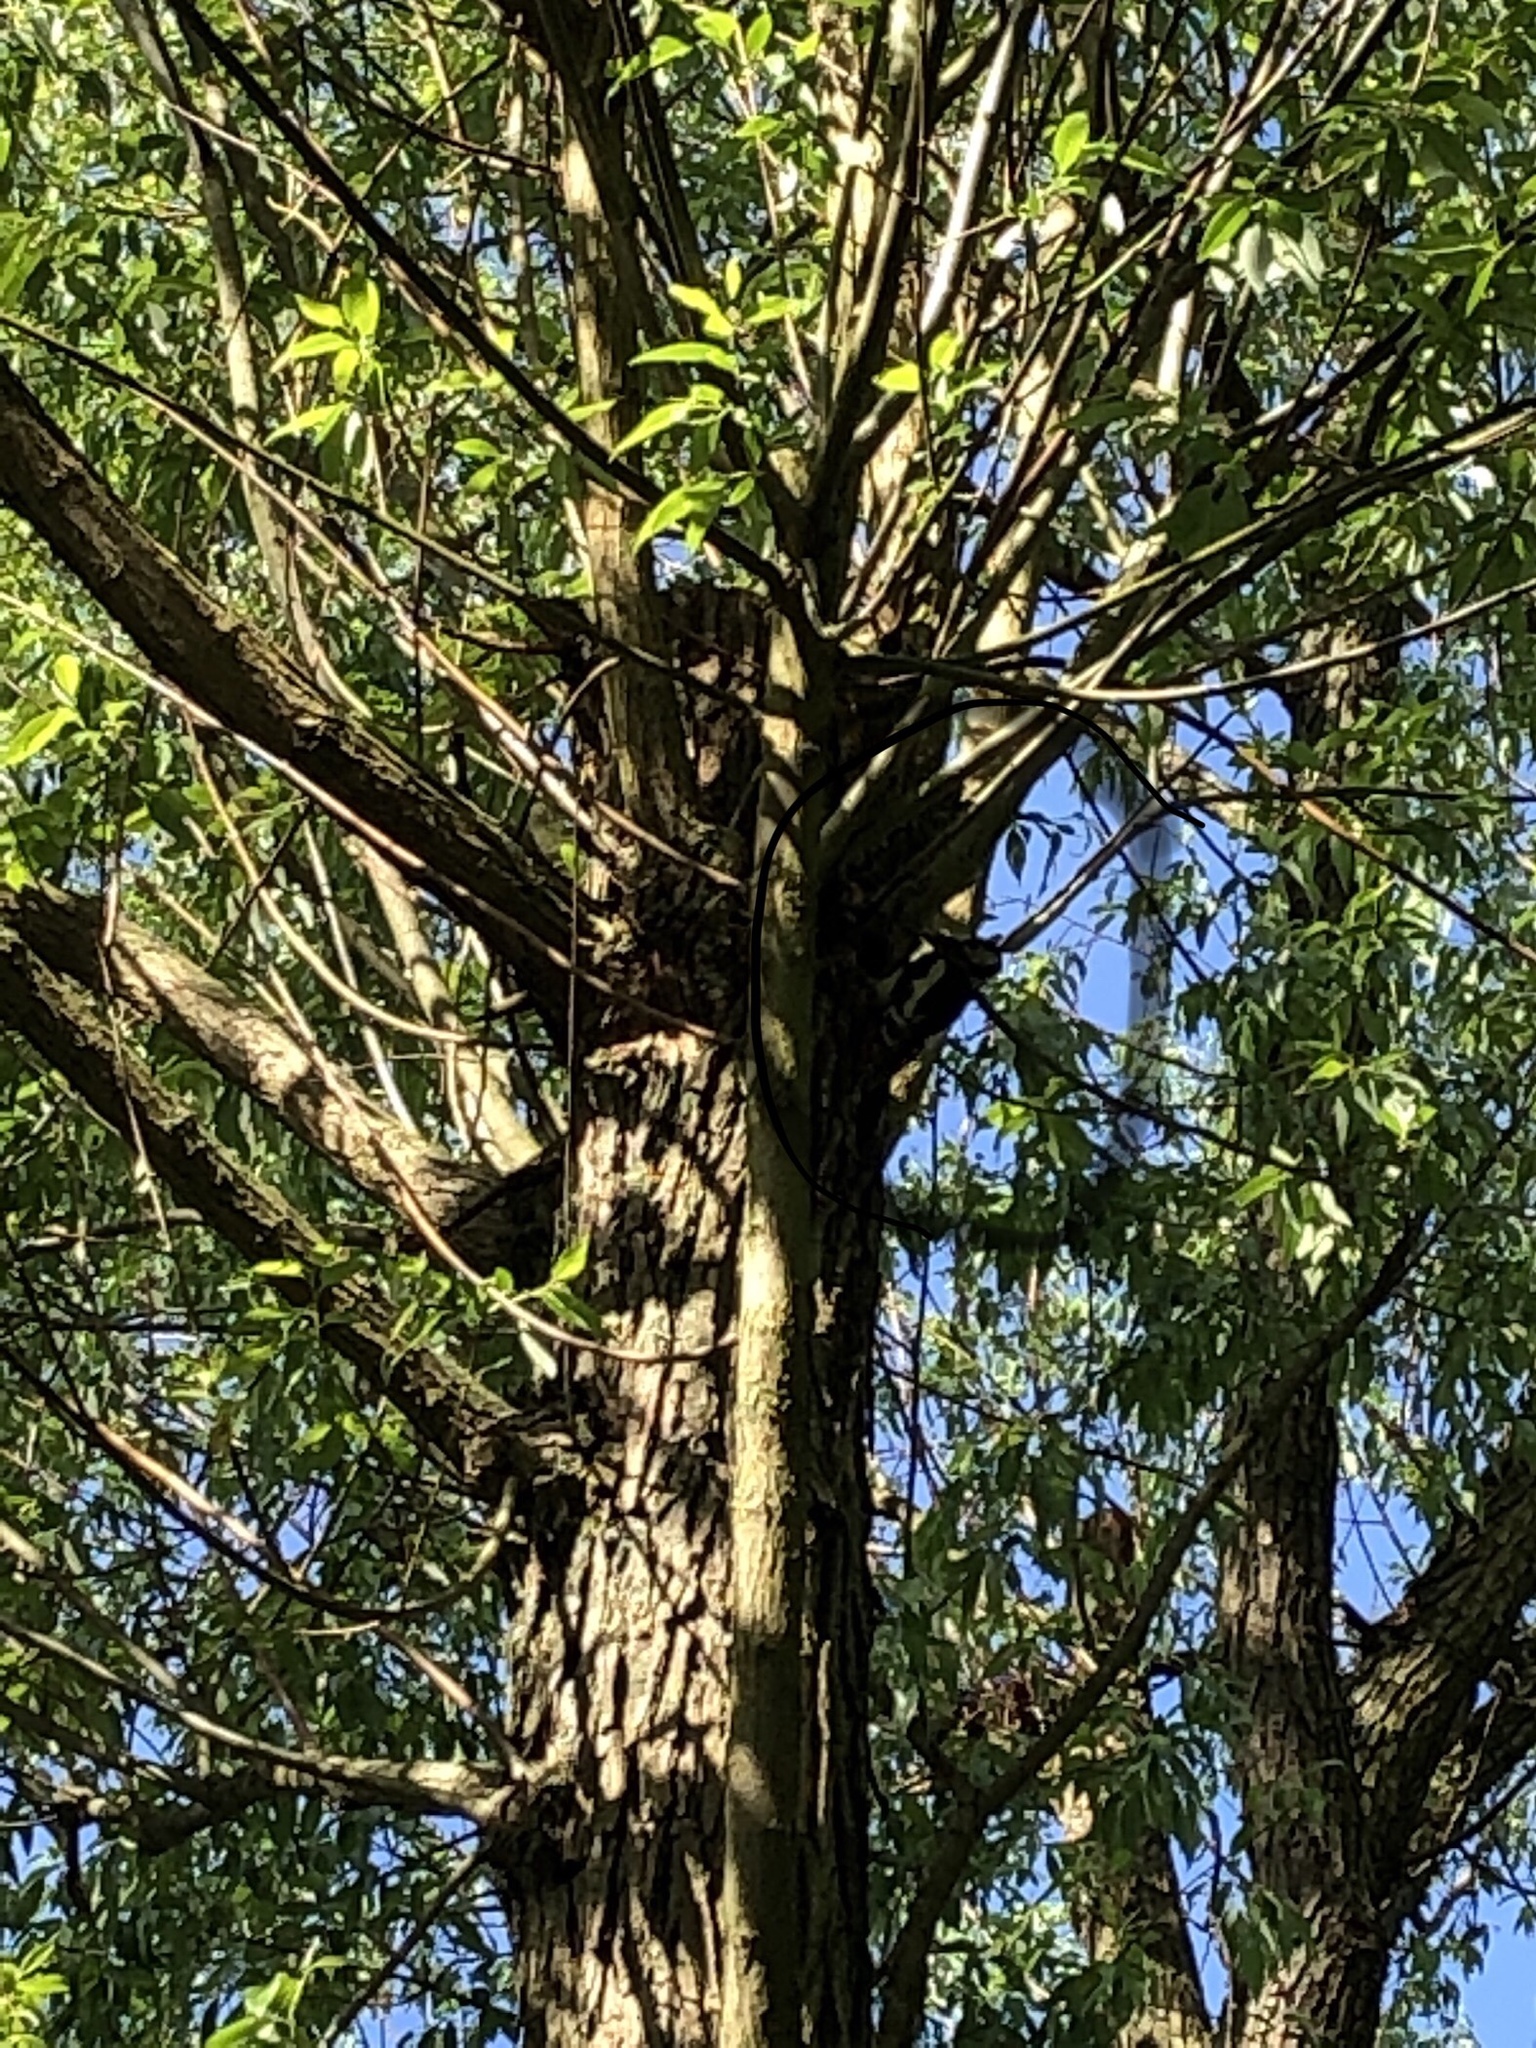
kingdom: Animalia
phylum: Chordata
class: Aves
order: Piciformes
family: Picidae
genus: Dendrocopos
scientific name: Dendrocopos major
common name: Great spotted woodpecker
